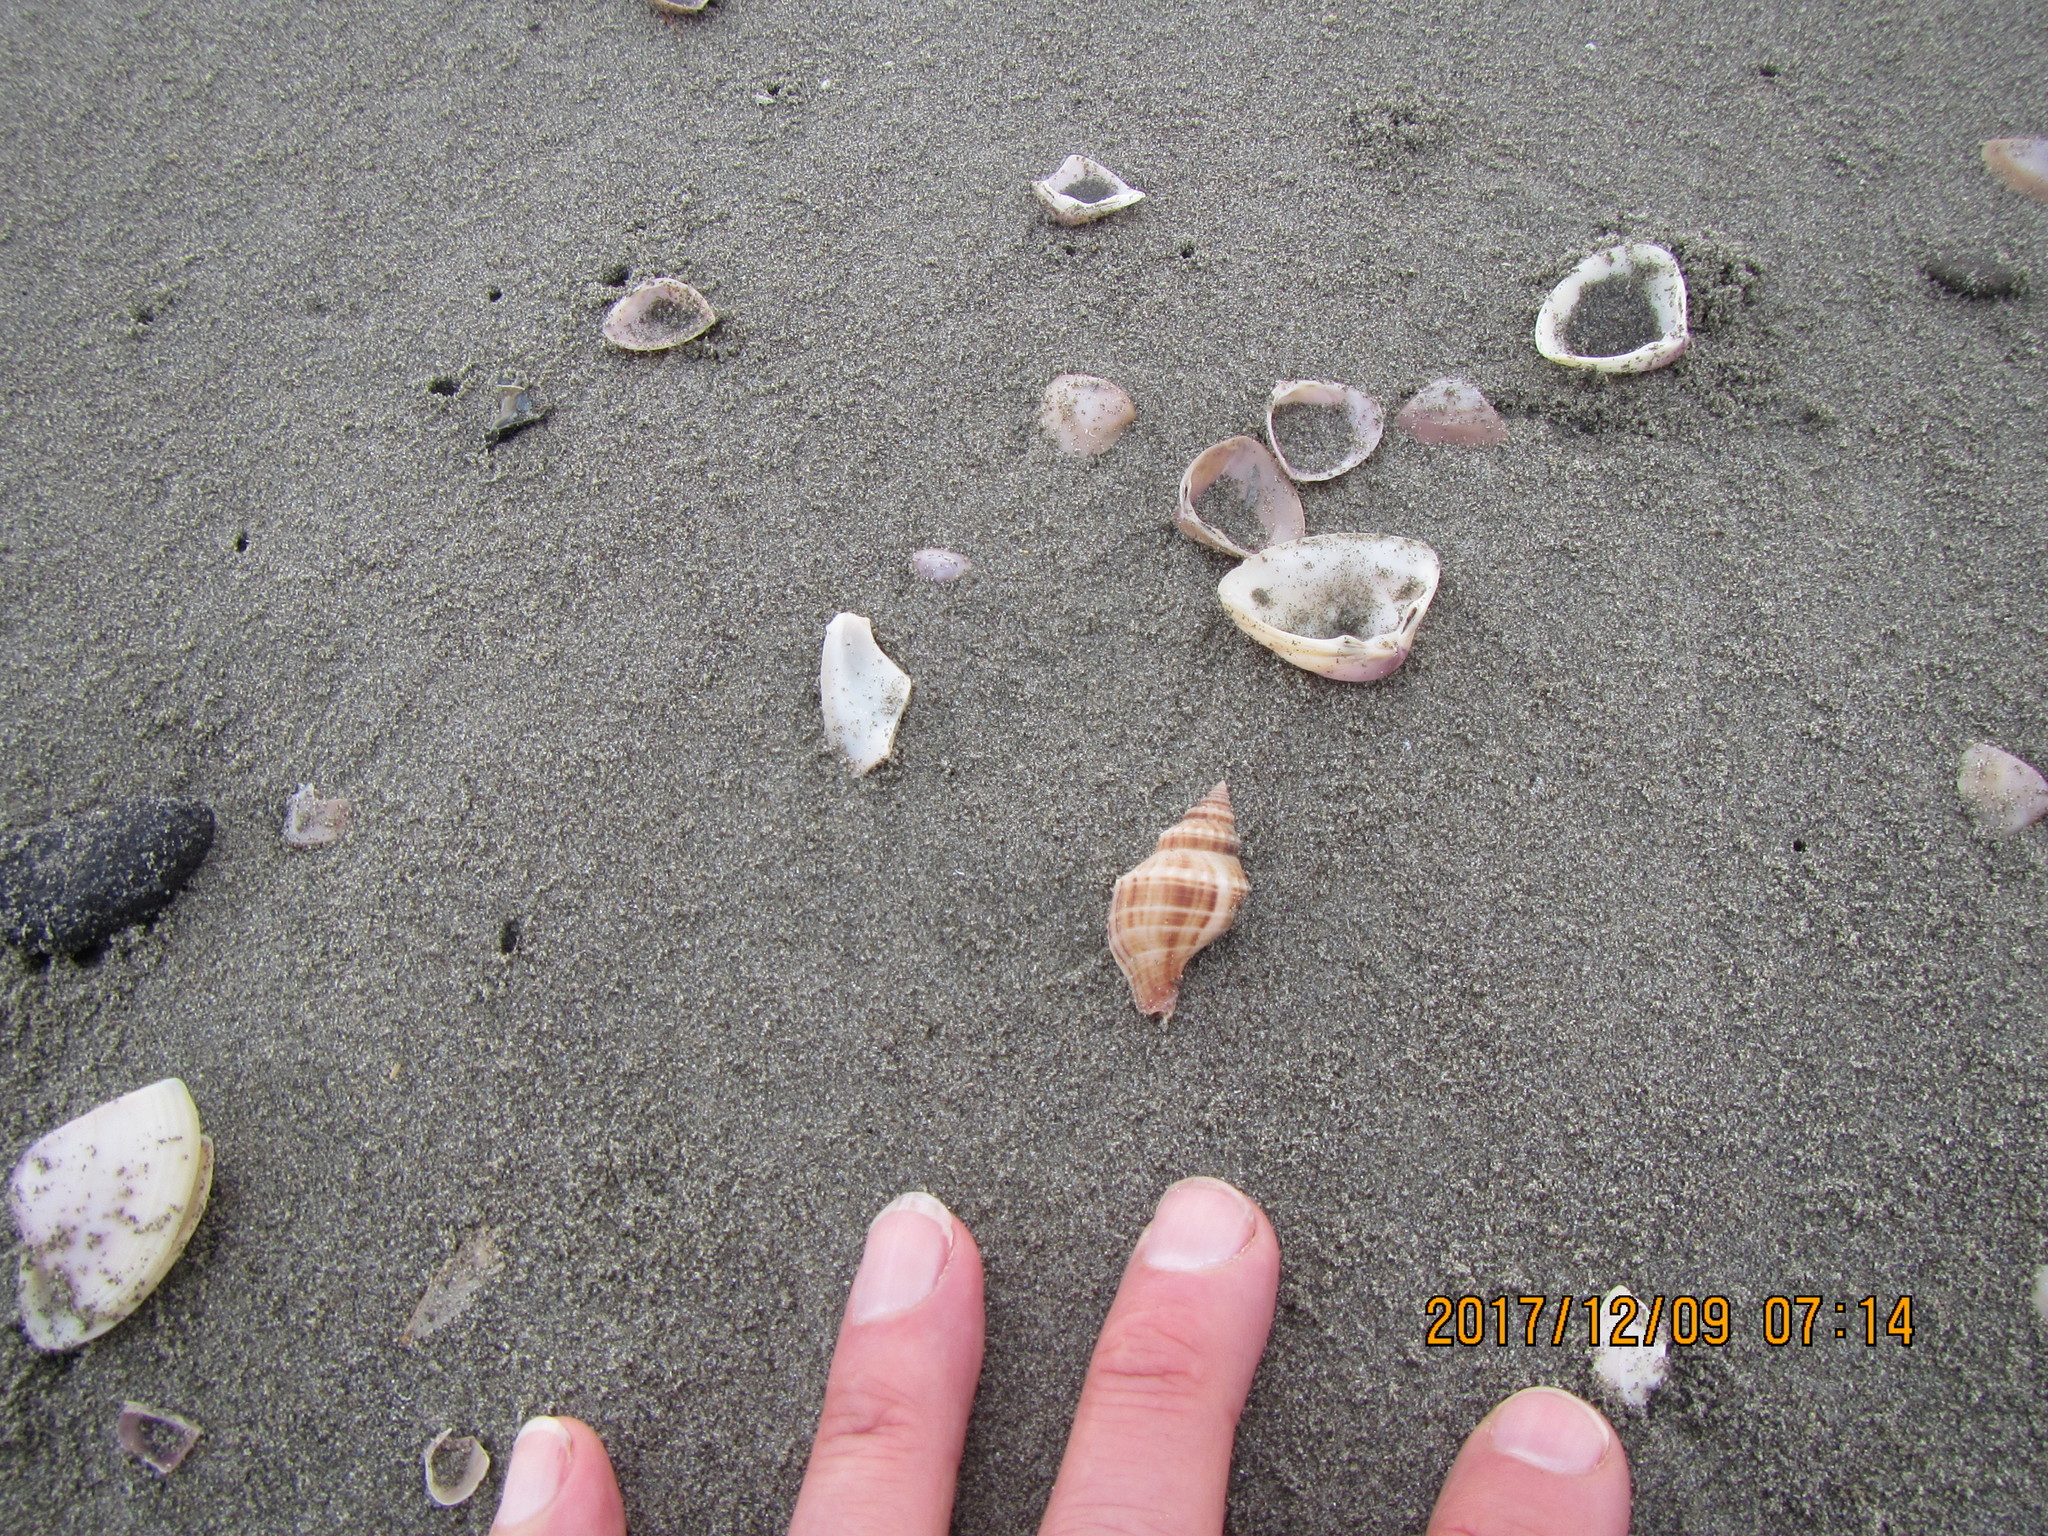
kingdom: Animalia
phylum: Mollusca
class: Gastropoda
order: Neogastropoda
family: Prosiphonidae
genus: Austrofusus
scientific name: Austrofusus glans
